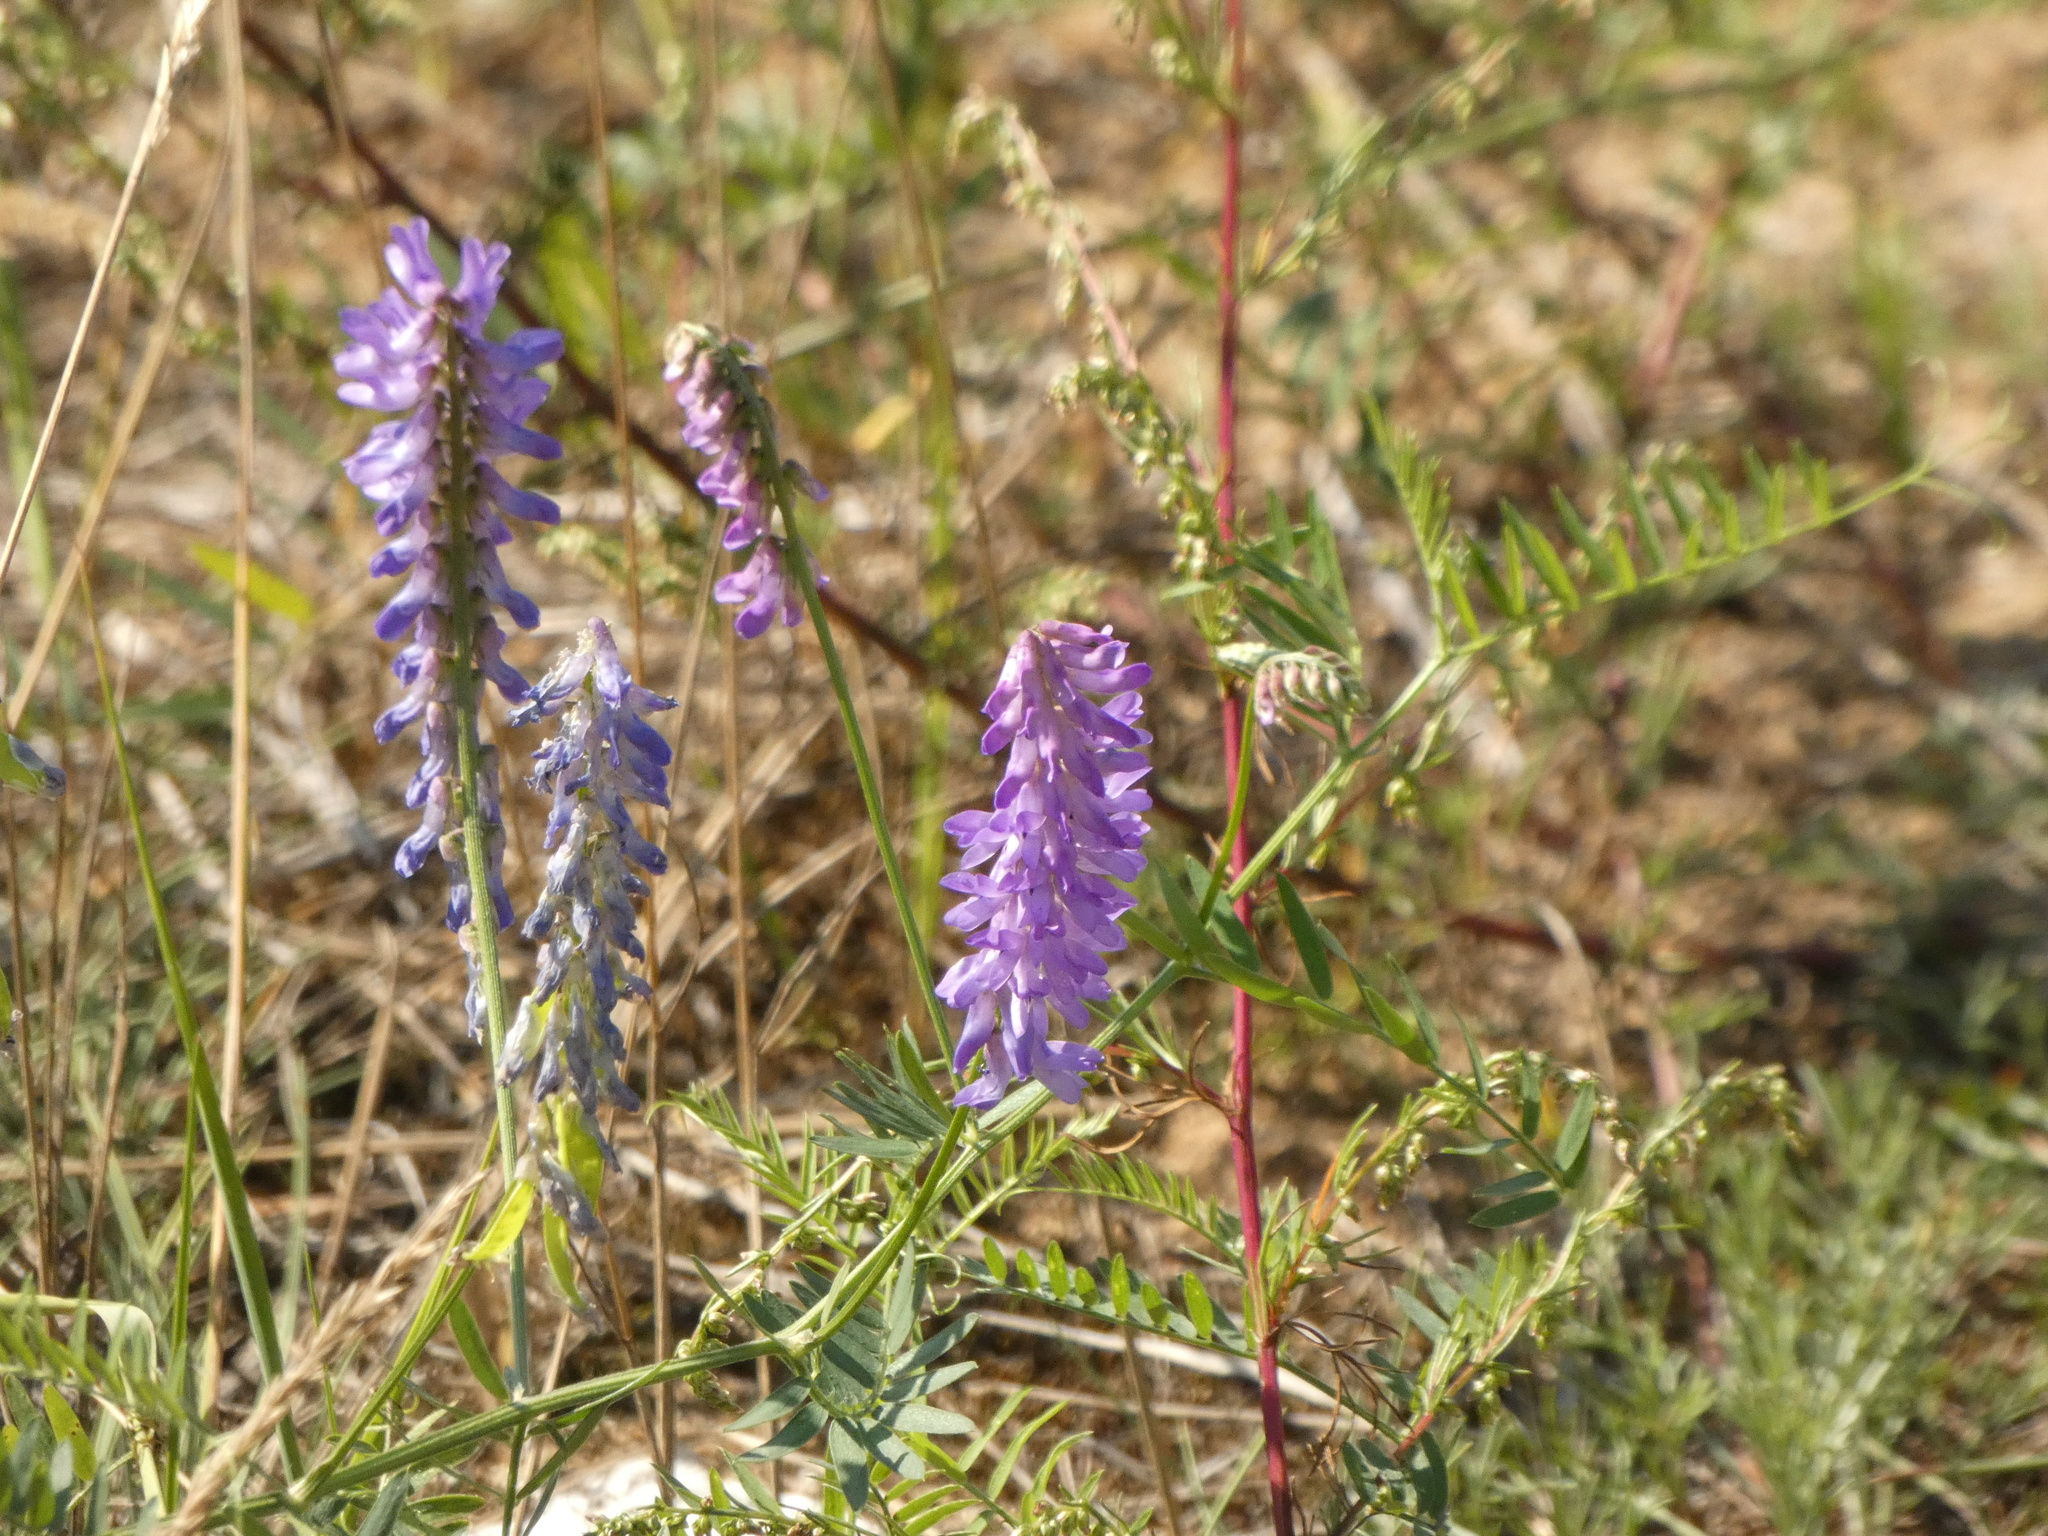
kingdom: Plantae
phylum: Tracheophyta
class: Magnoliopsida
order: Fabales
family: Fabaceae
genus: Vicia
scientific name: Vicia cracca
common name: Bird vetch
